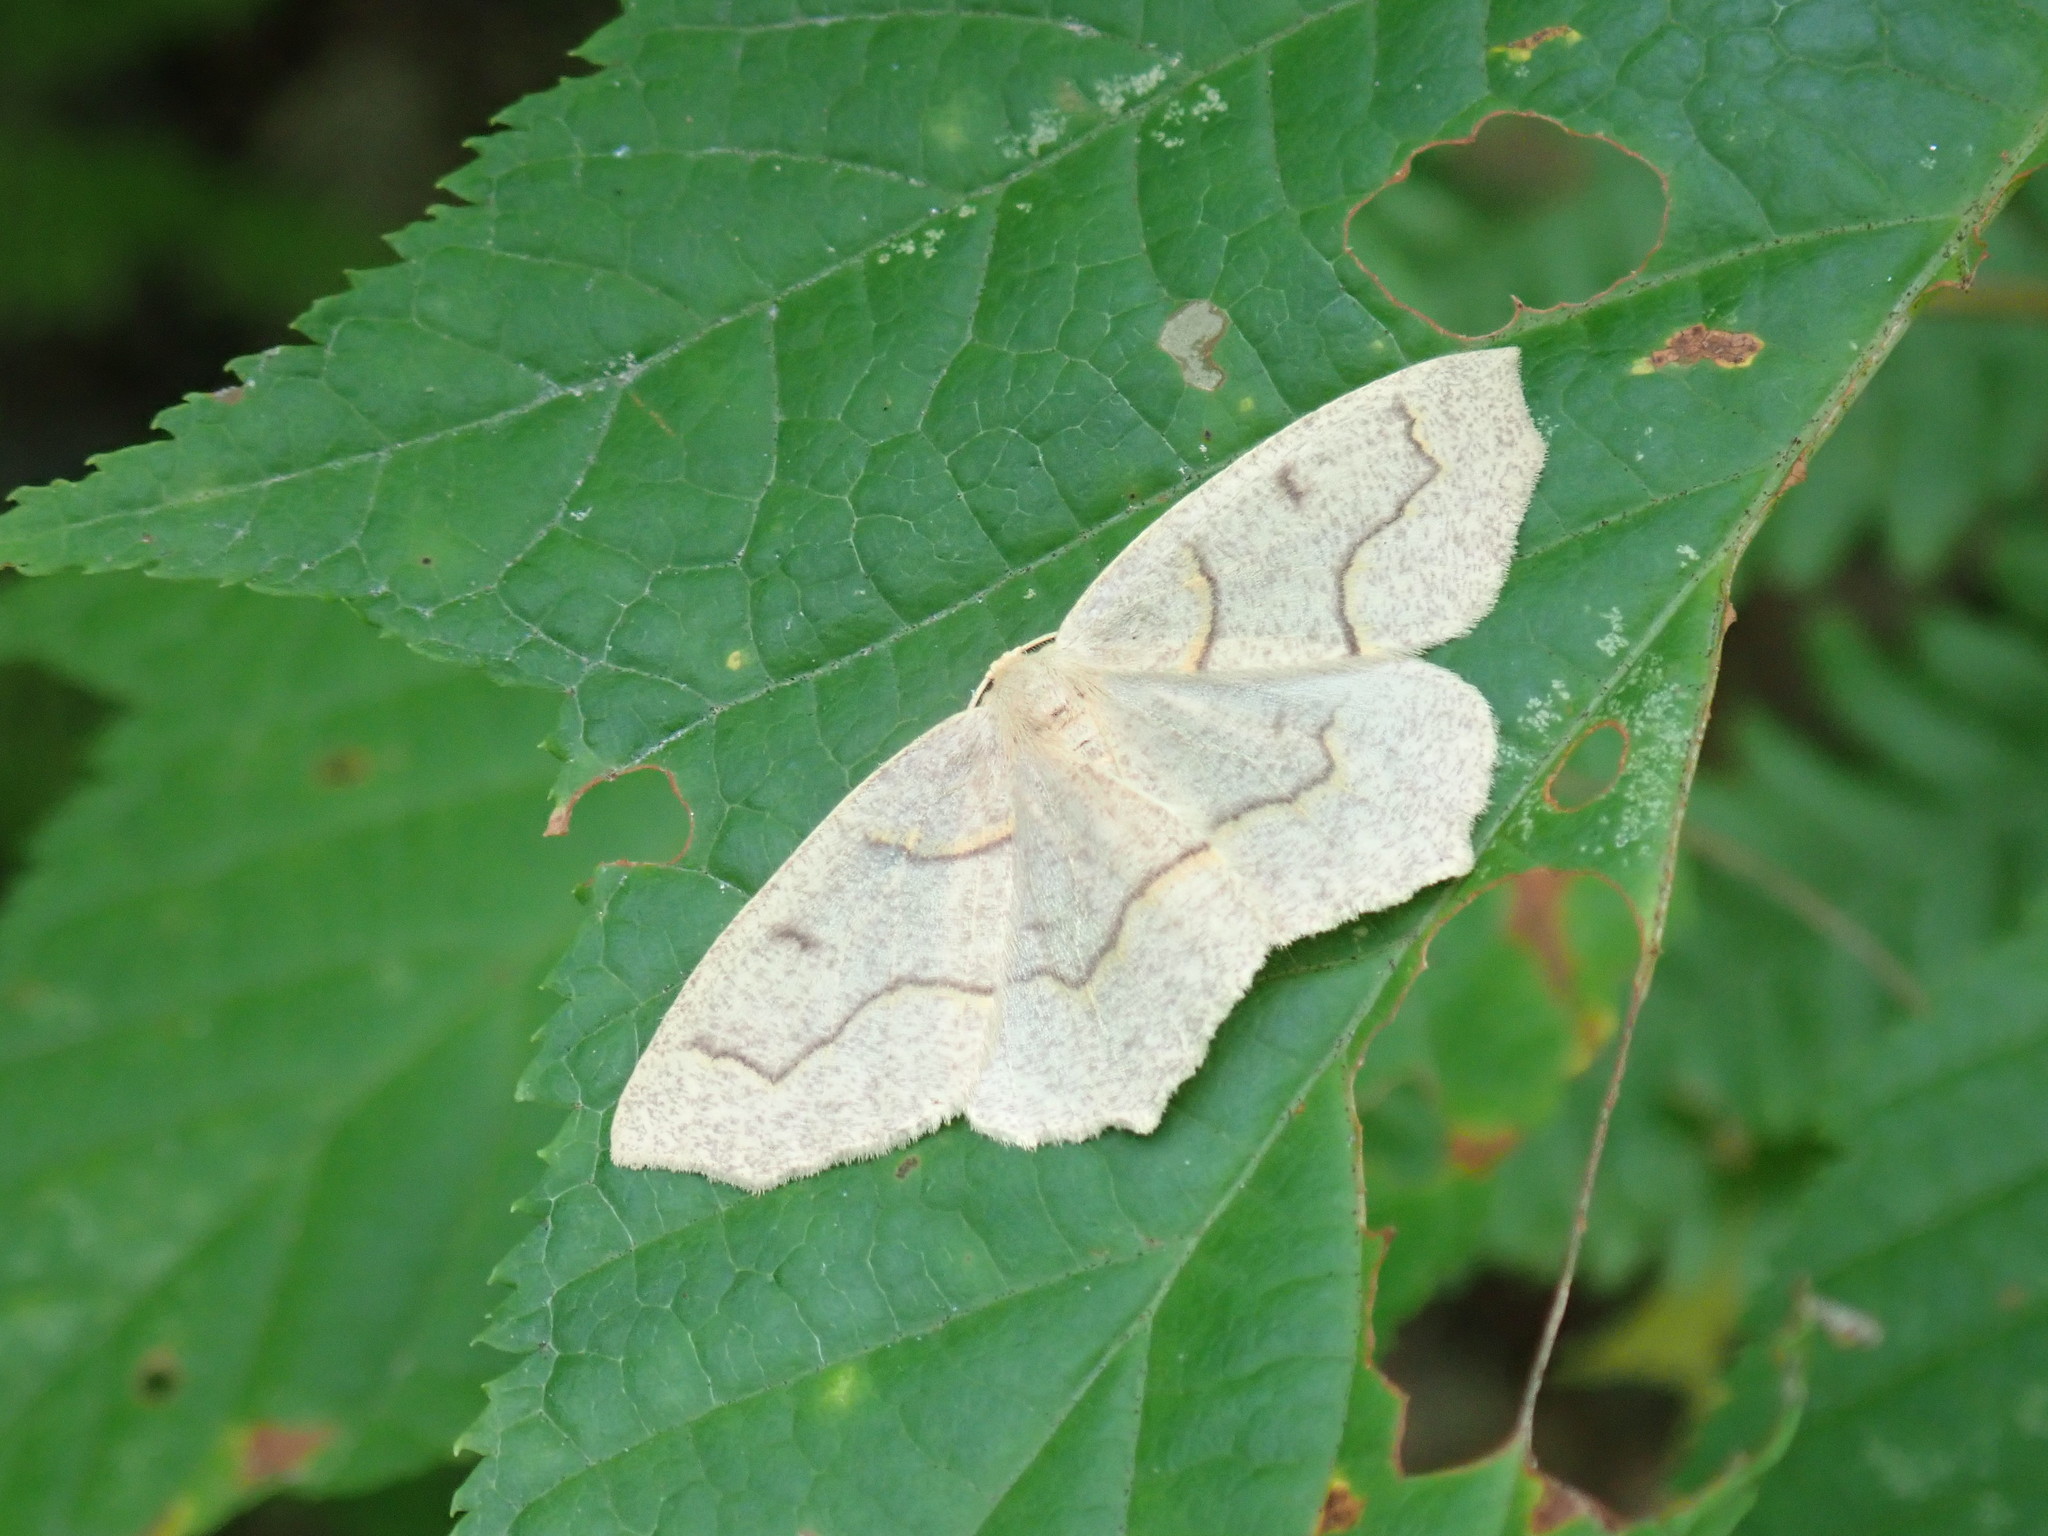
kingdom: Animalia
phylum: Arthropoda
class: Insecta
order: Lepidoptera
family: Geometridae
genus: Lambdina
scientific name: Lambdina fiscellaria
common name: Hemlock looper
